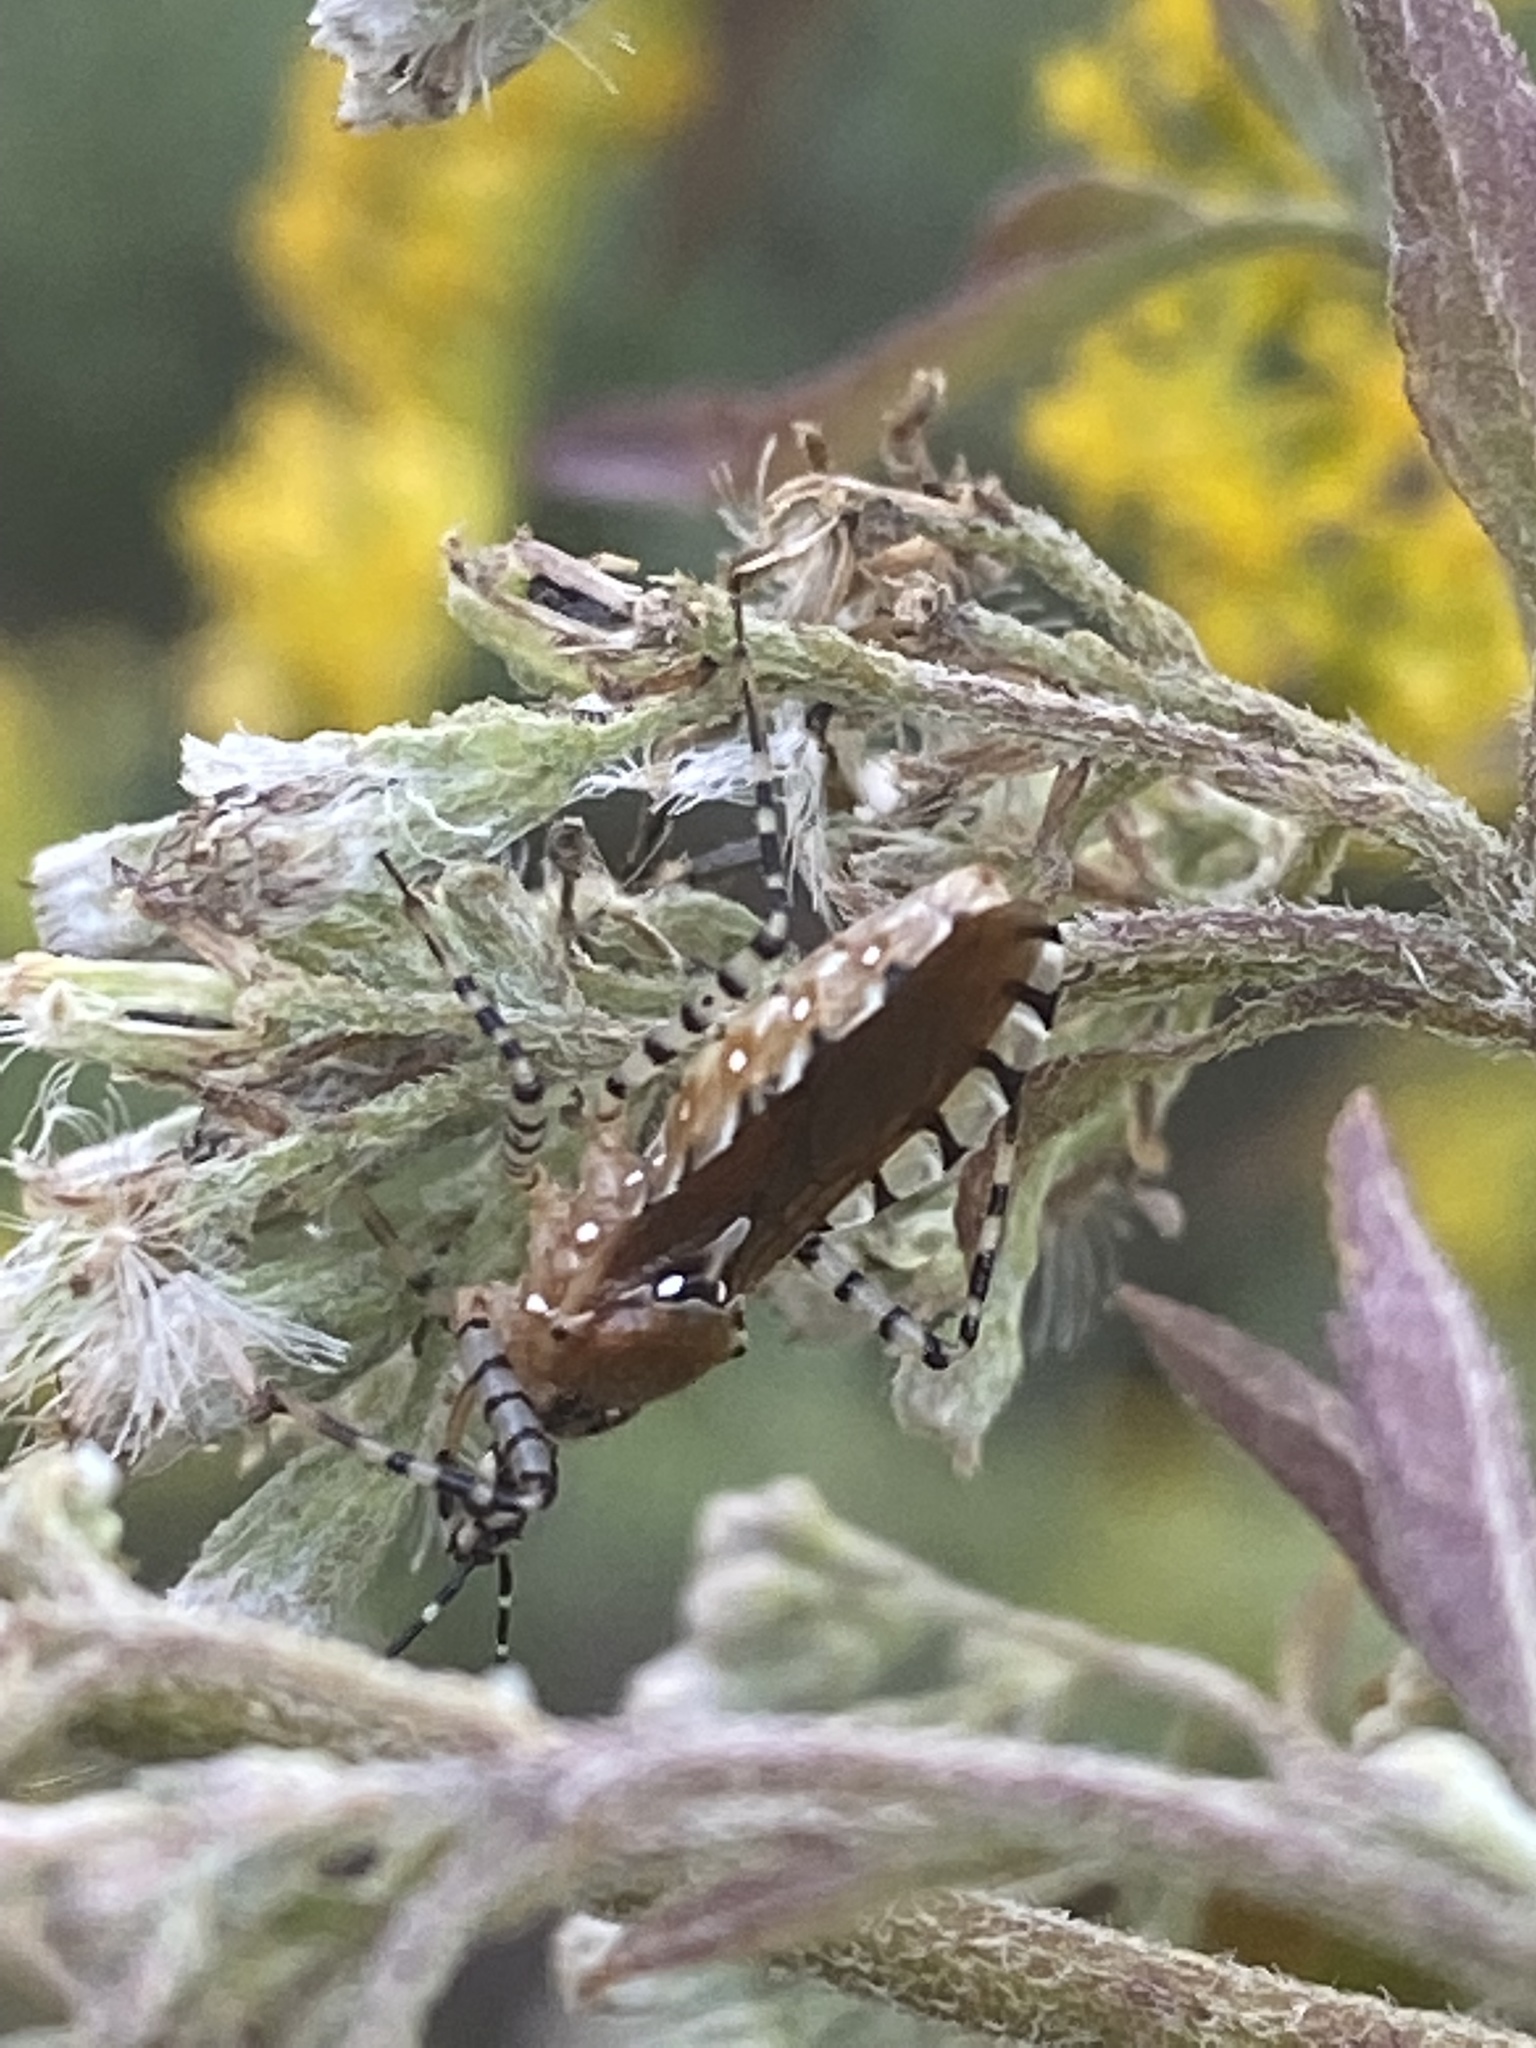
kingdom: Animalia
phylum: Arthropoda
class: Insecta
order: Hemiptera
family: Reduviidae
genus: Pselliopus
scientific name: Pselliopus cinctus
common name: Ringed assassin bug
